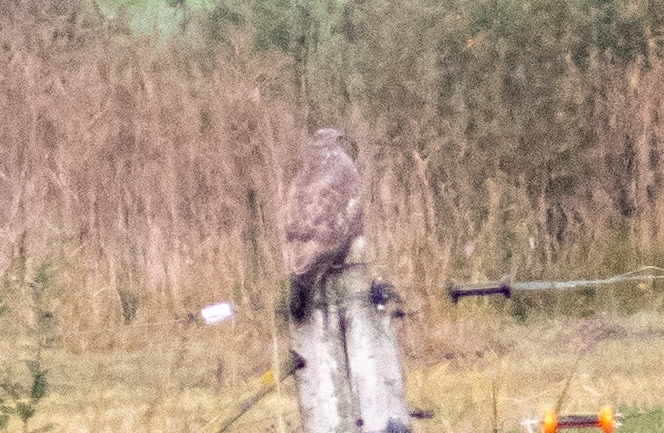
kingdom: Animalia
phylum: Chordata
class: Aves
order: Accipitriformes
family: Accipitridae
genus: Buteo
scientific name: Buteo buteo
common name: Common buzzard
